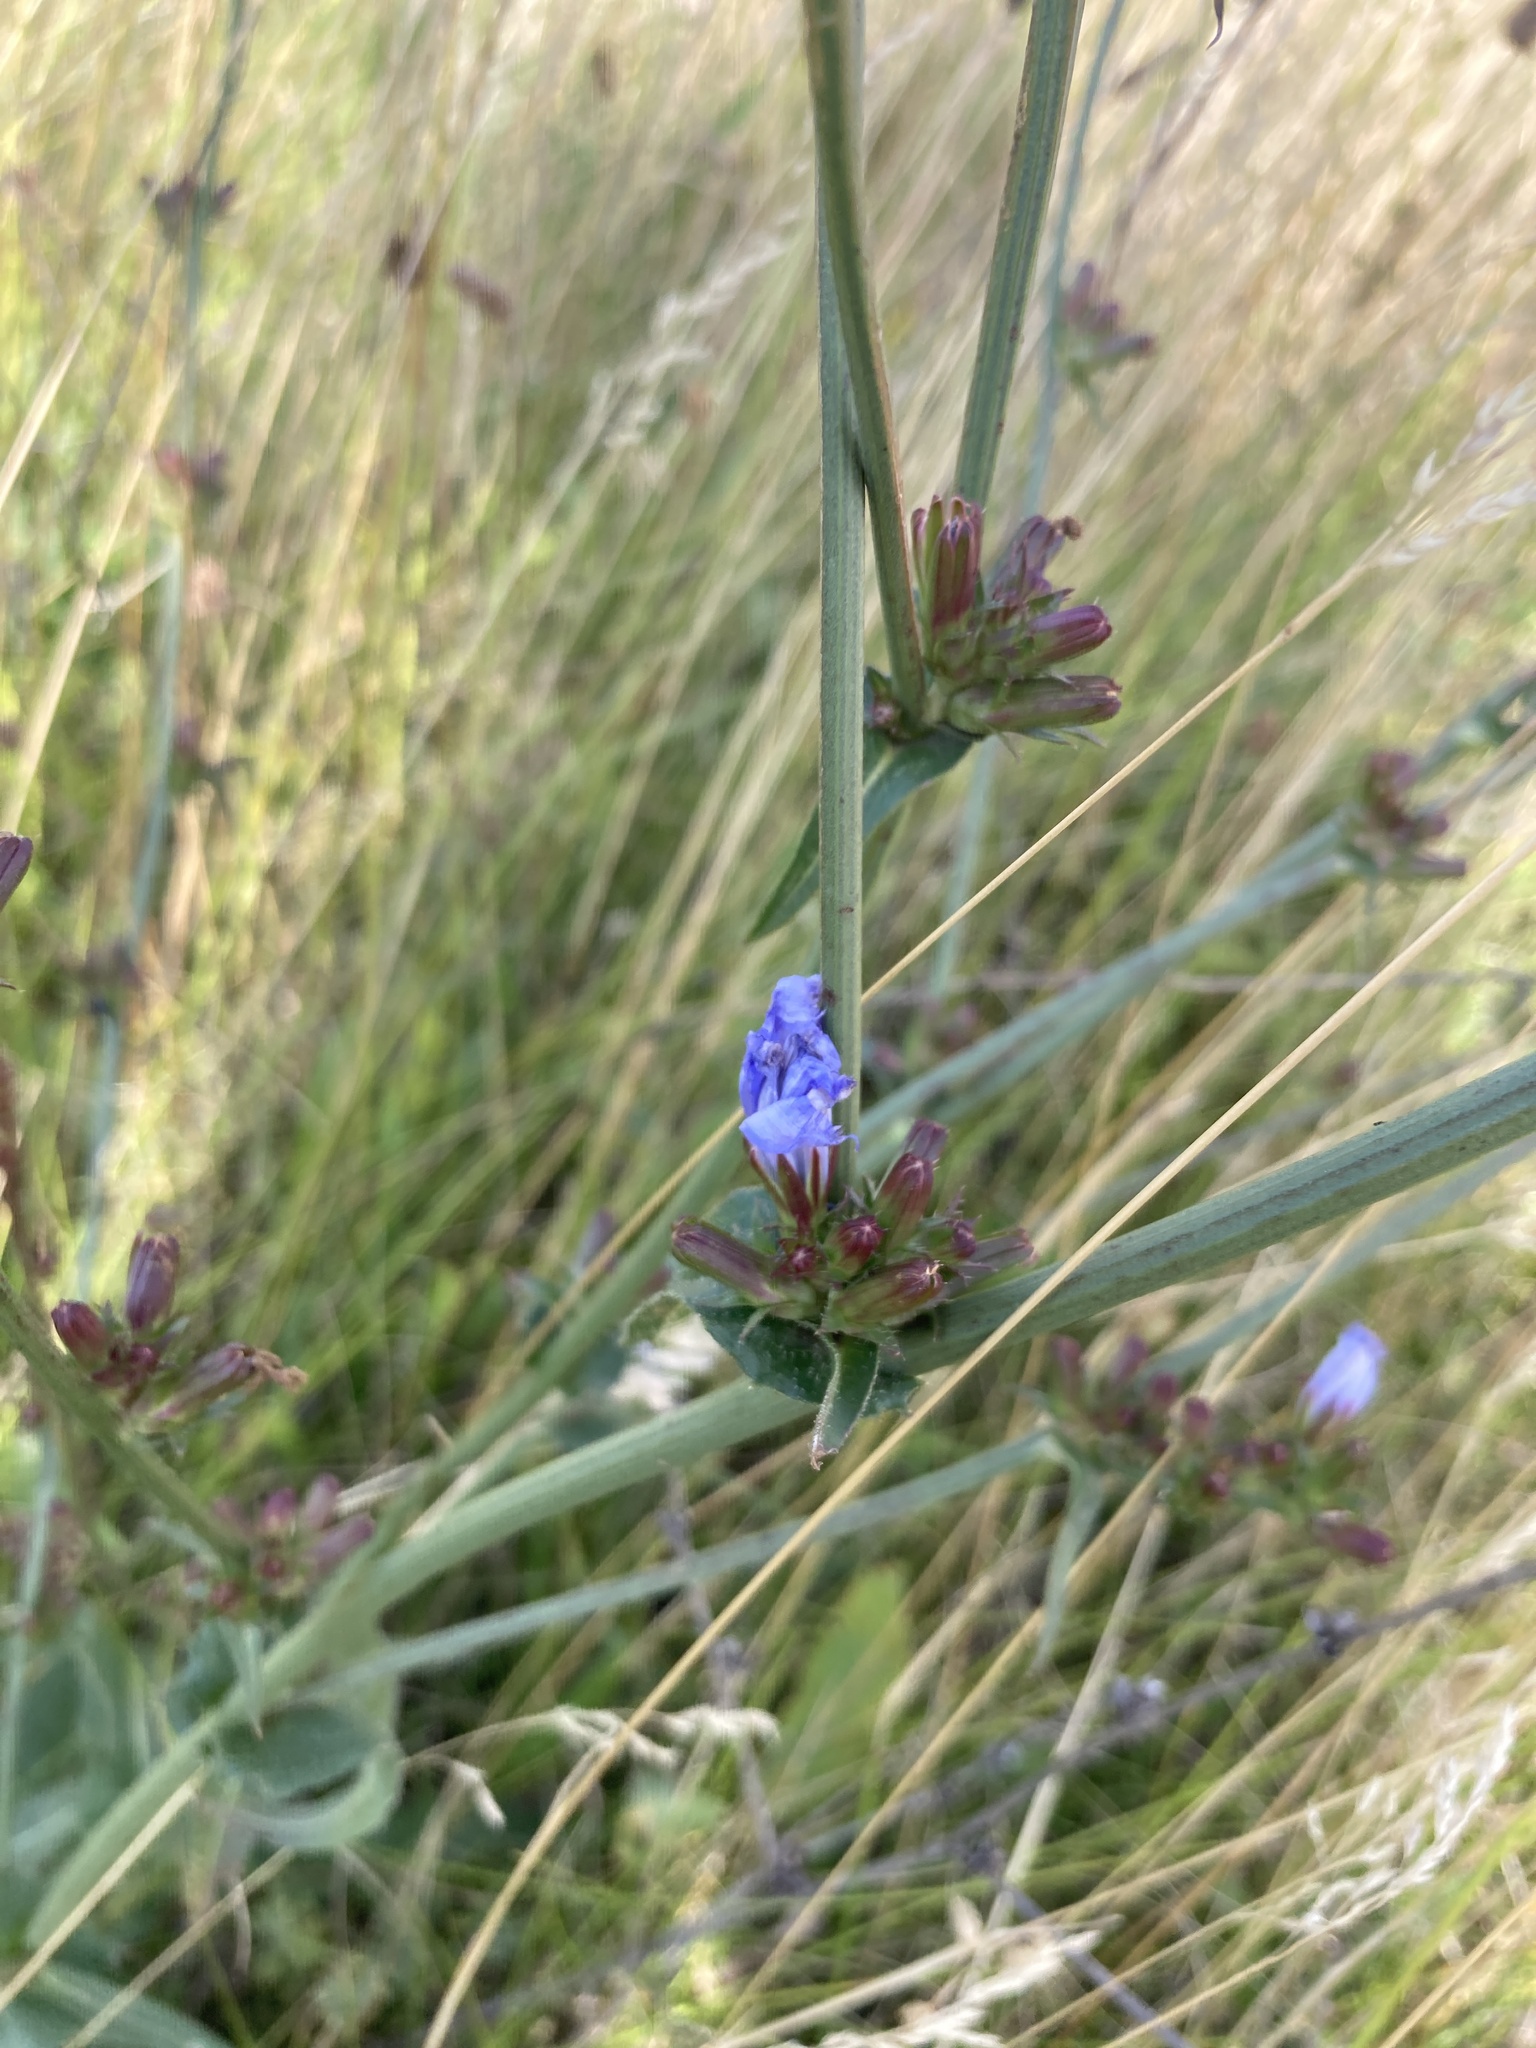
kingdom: Plantae
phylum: Tracheophyta
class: Magnoliopsida
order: Asterales
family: Asteraceae
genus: Cichorium
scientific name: Cichorium intybus
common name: Chicory
